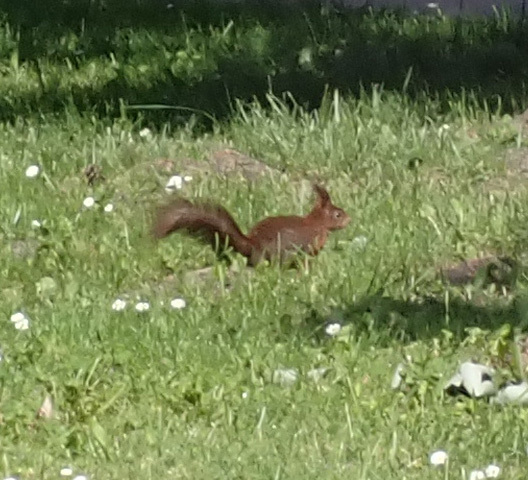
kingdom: Animalia
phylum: Chordata
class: Mammalia
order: Rodentia
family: Sciuridae
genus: Sciurus
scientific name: Sciurus vulgaris
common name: Eurasian red squirrel
